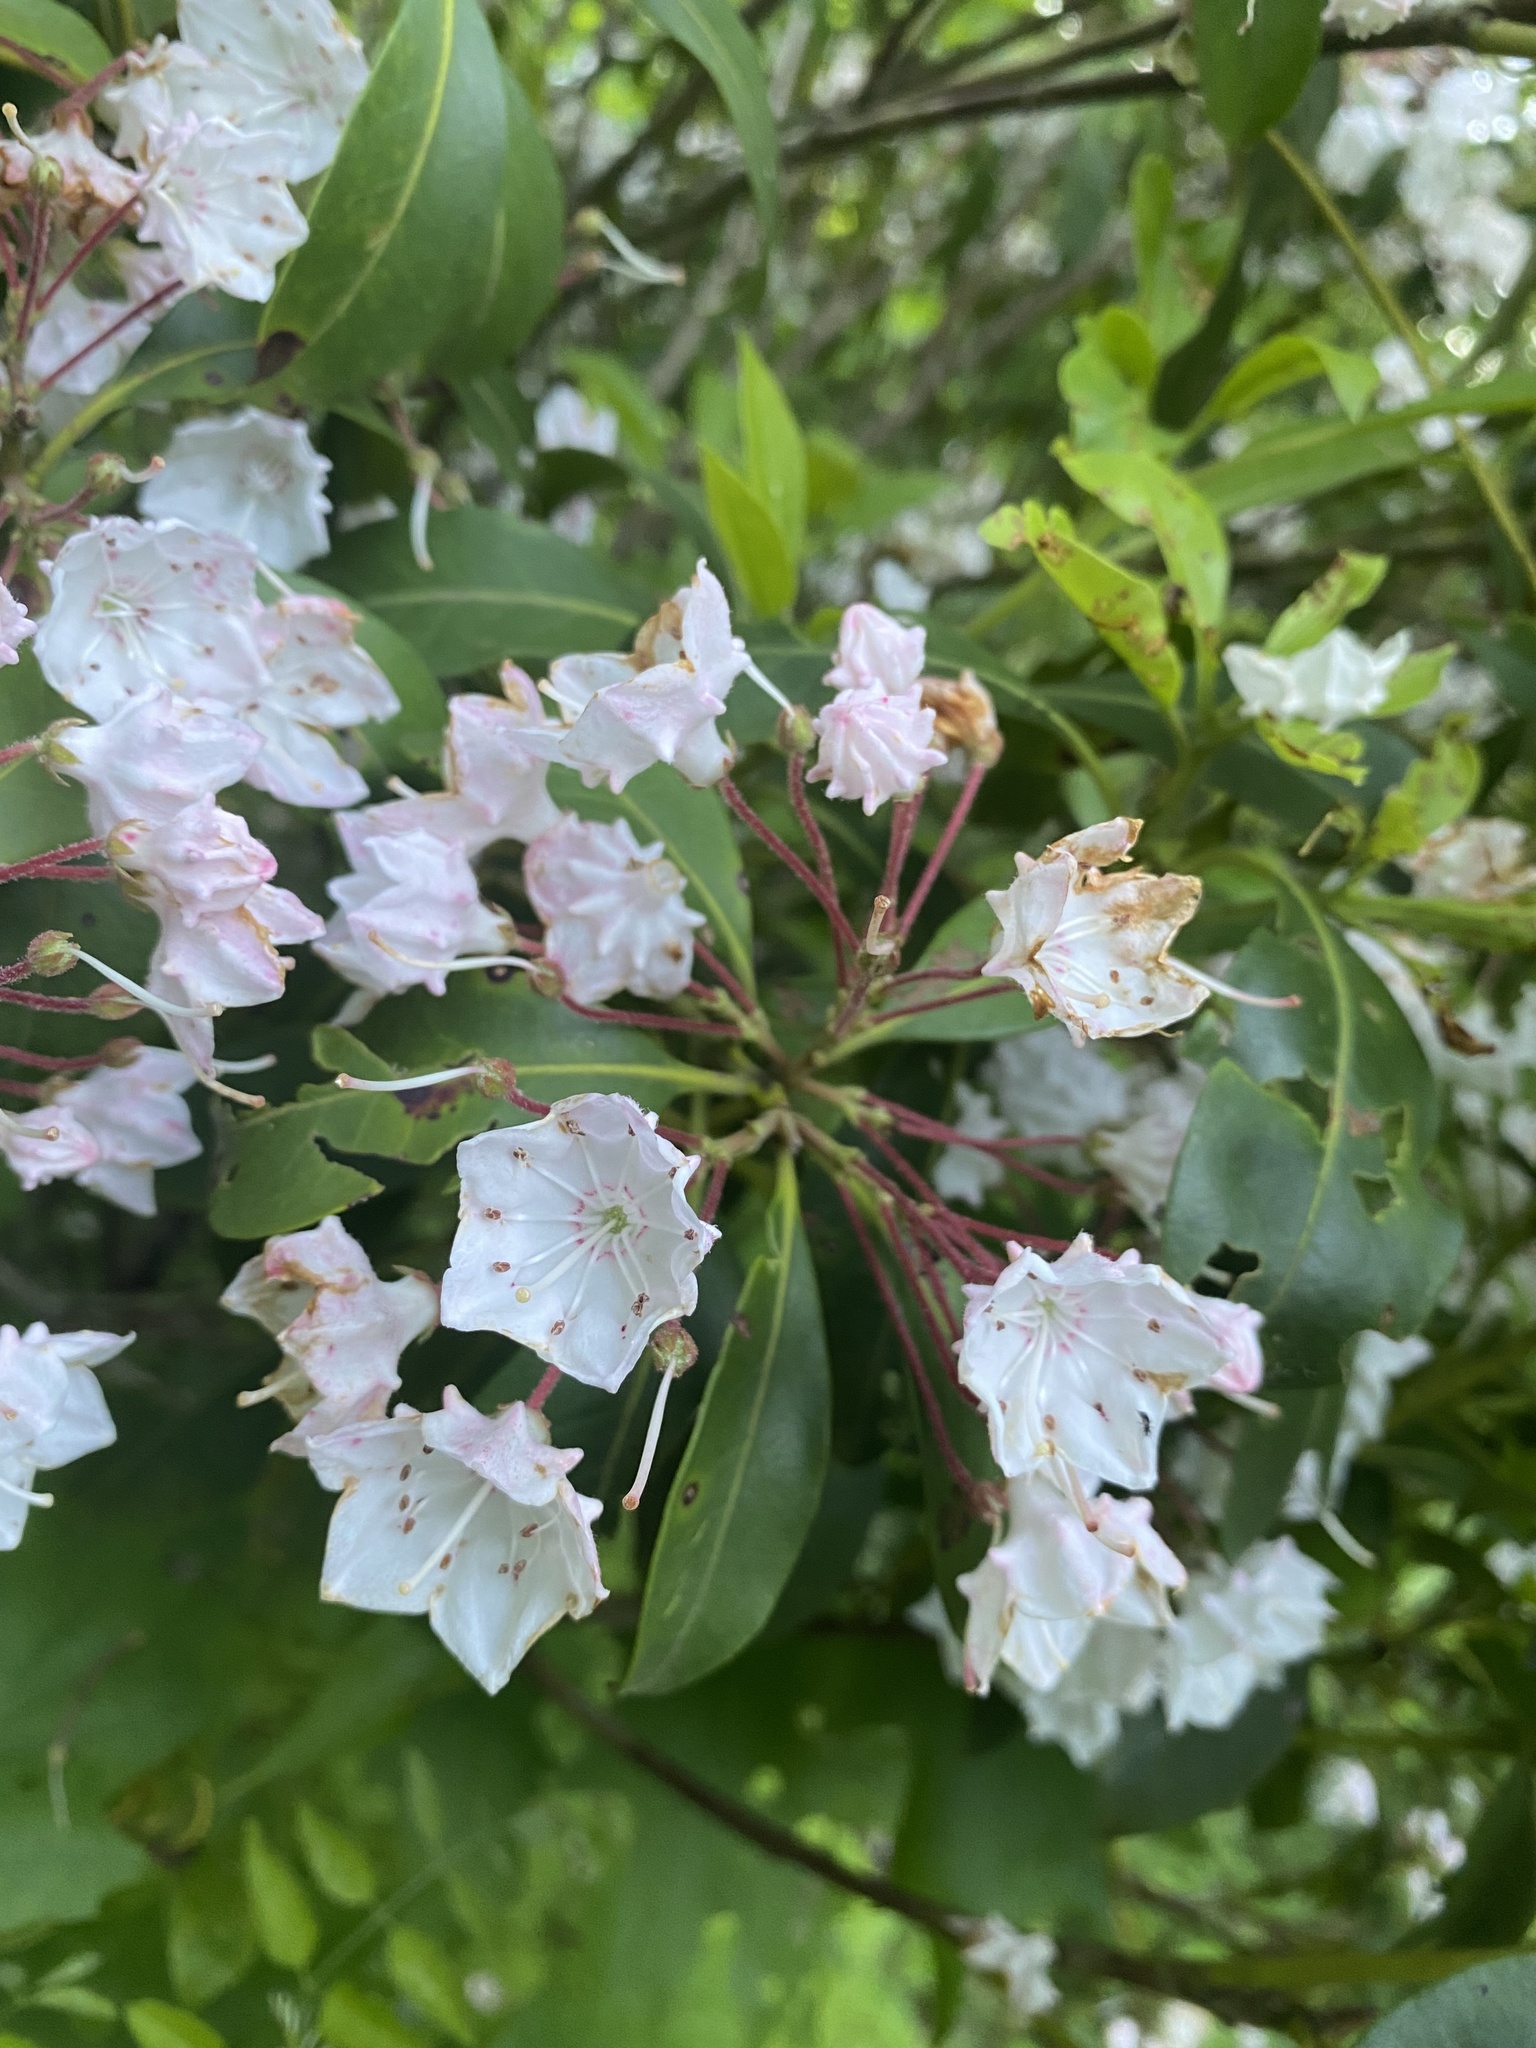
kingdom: Plantae
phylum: Tracheophyta
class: Magnoliopsida
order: Ericales
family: Ericaceae
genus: Kalmia
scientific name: Kalmia latifolia
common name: Mountain-laurel
